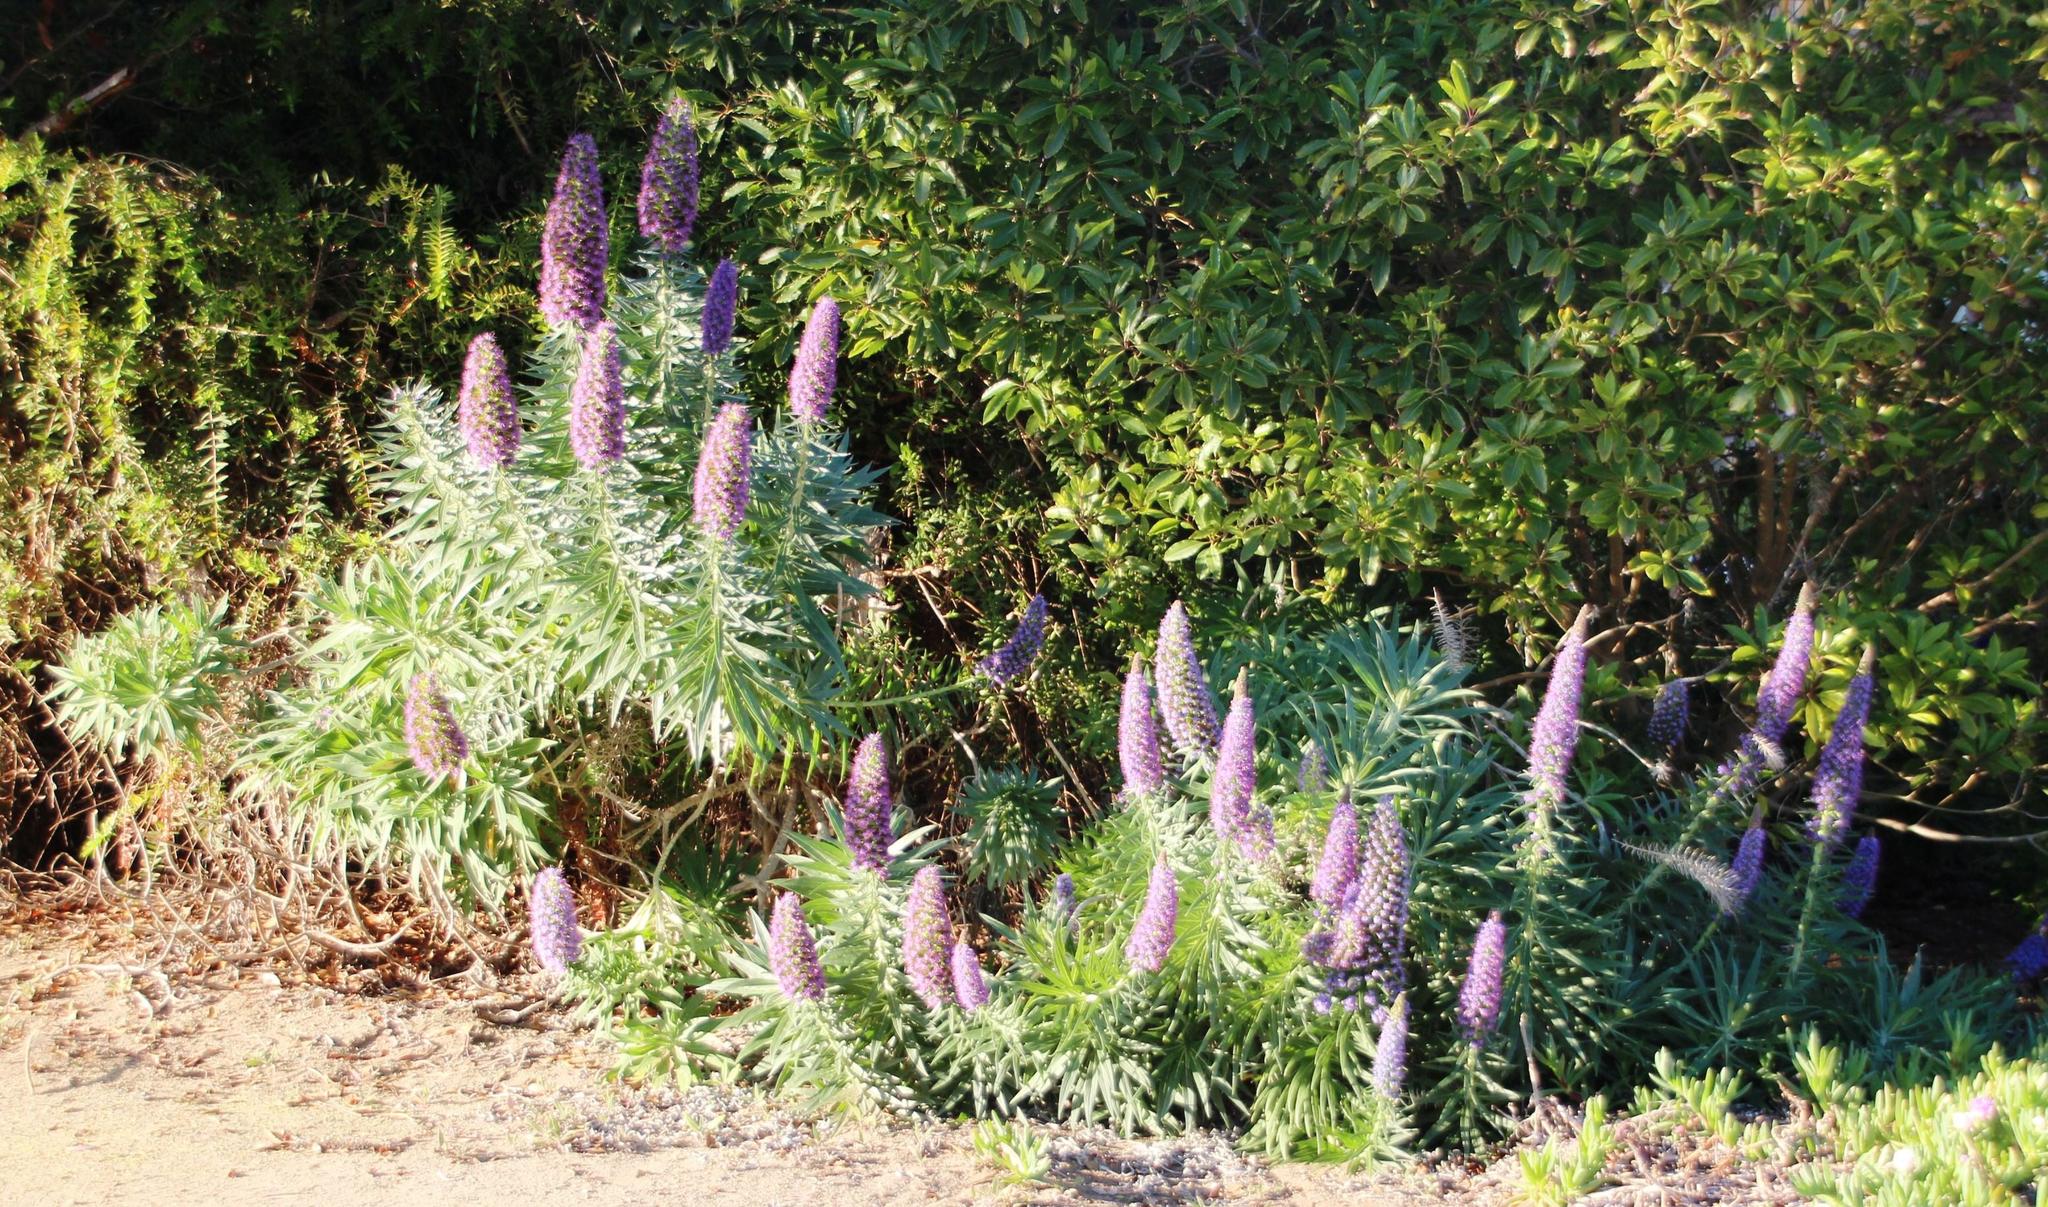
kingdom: Plantae
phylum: Tracheophyta
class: Magnoliopsida
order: Boraginales
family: Boraginaceae
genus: Echium
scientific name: Echium candicans
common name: Pride of madeira
